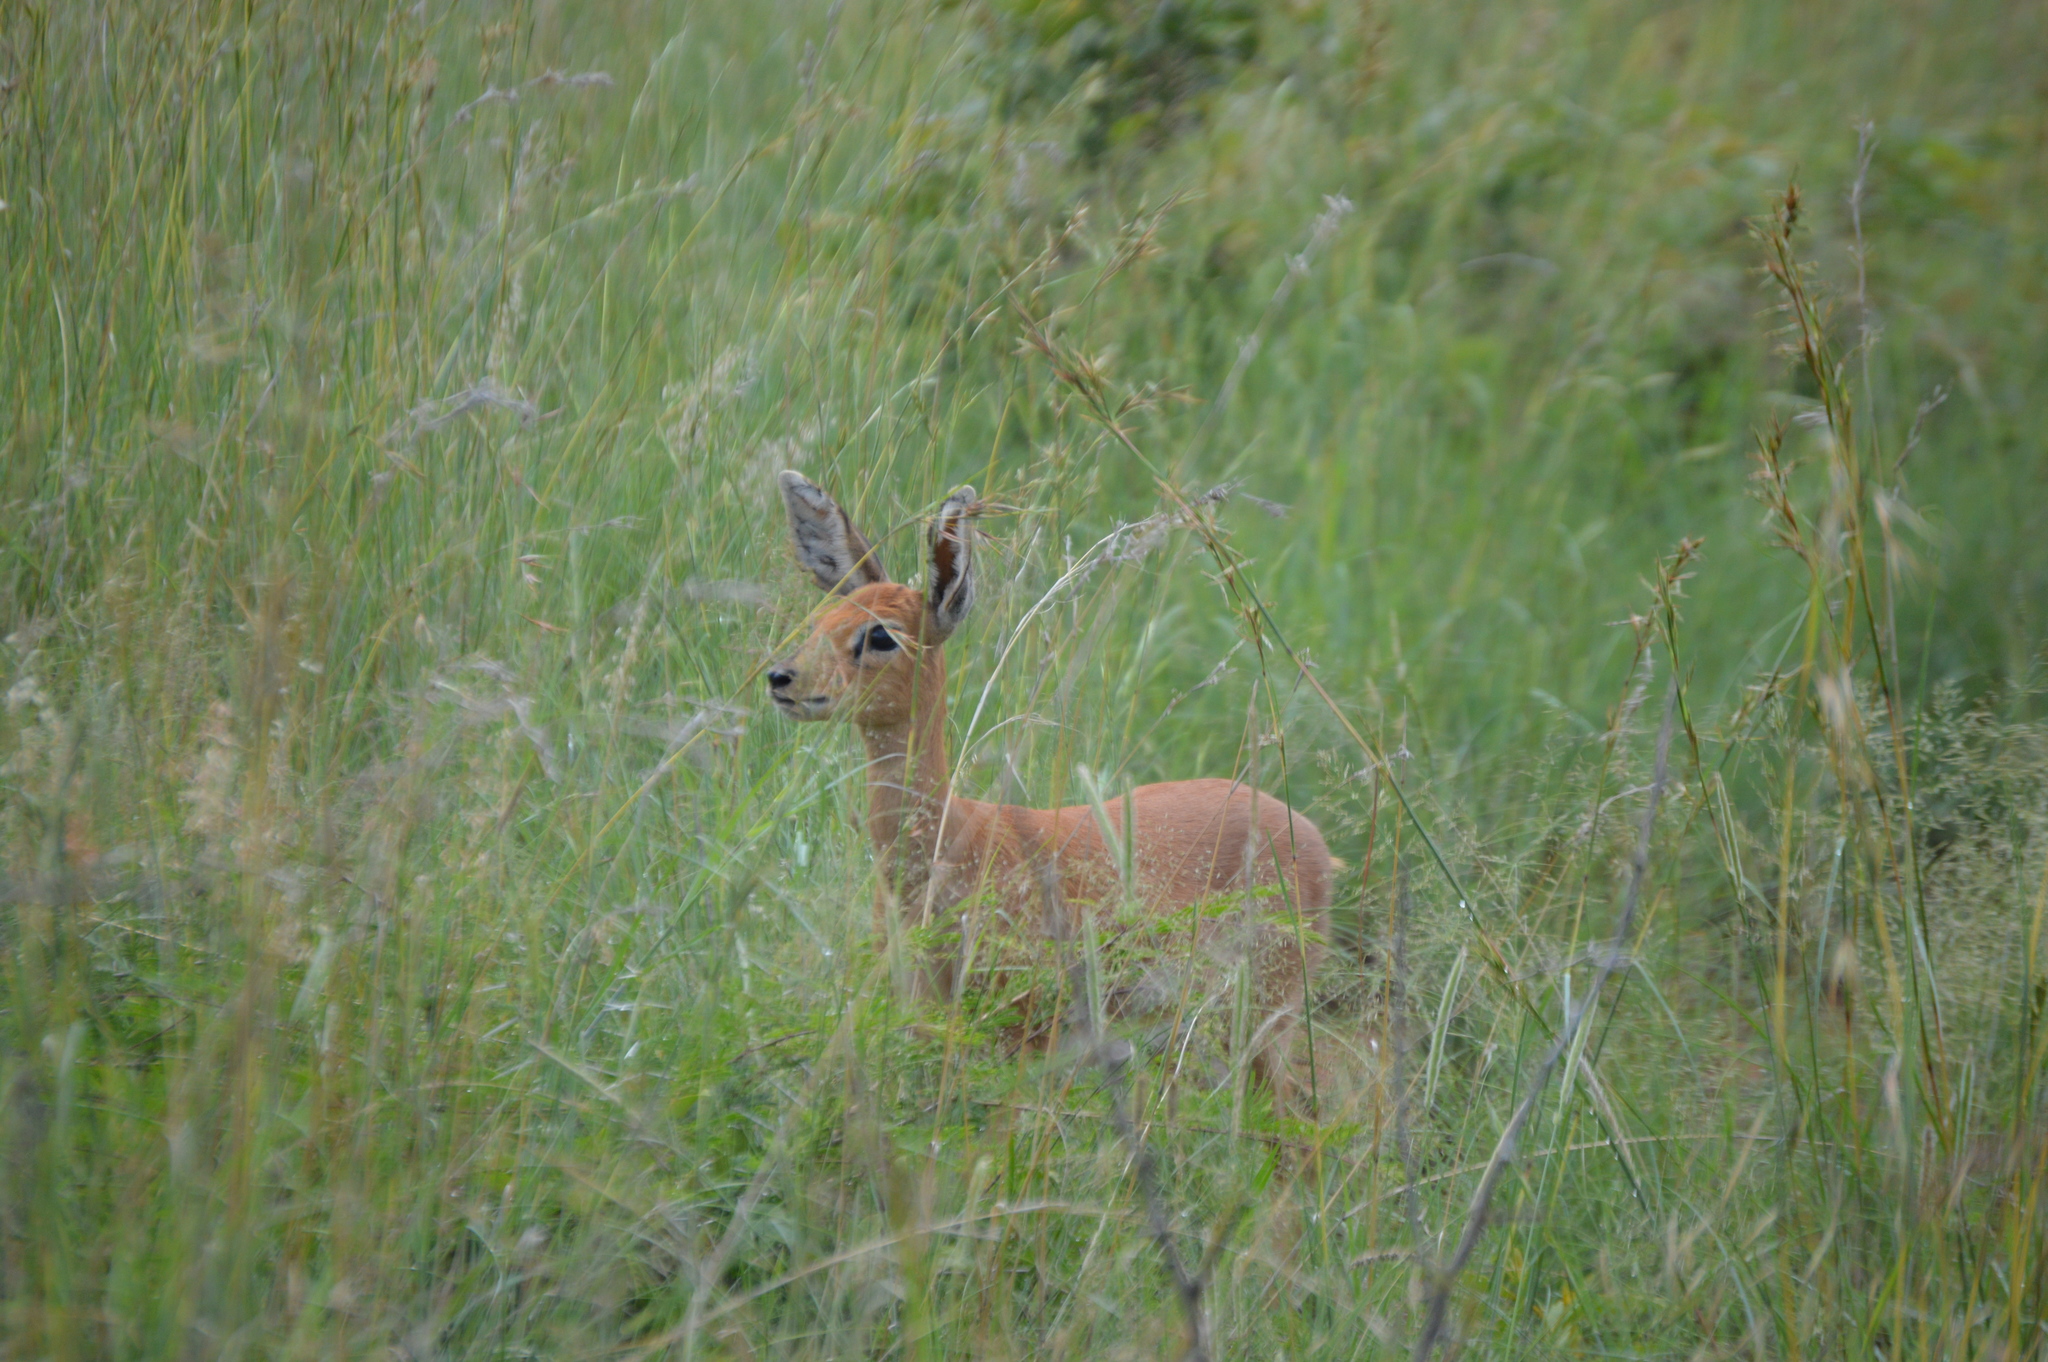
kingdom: Animalia
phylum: Chordata
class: Mammalia
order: Artiodactyla
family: Bovidae
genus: Raphicerus
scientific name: Raphicerus campestris
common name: Steenbok
